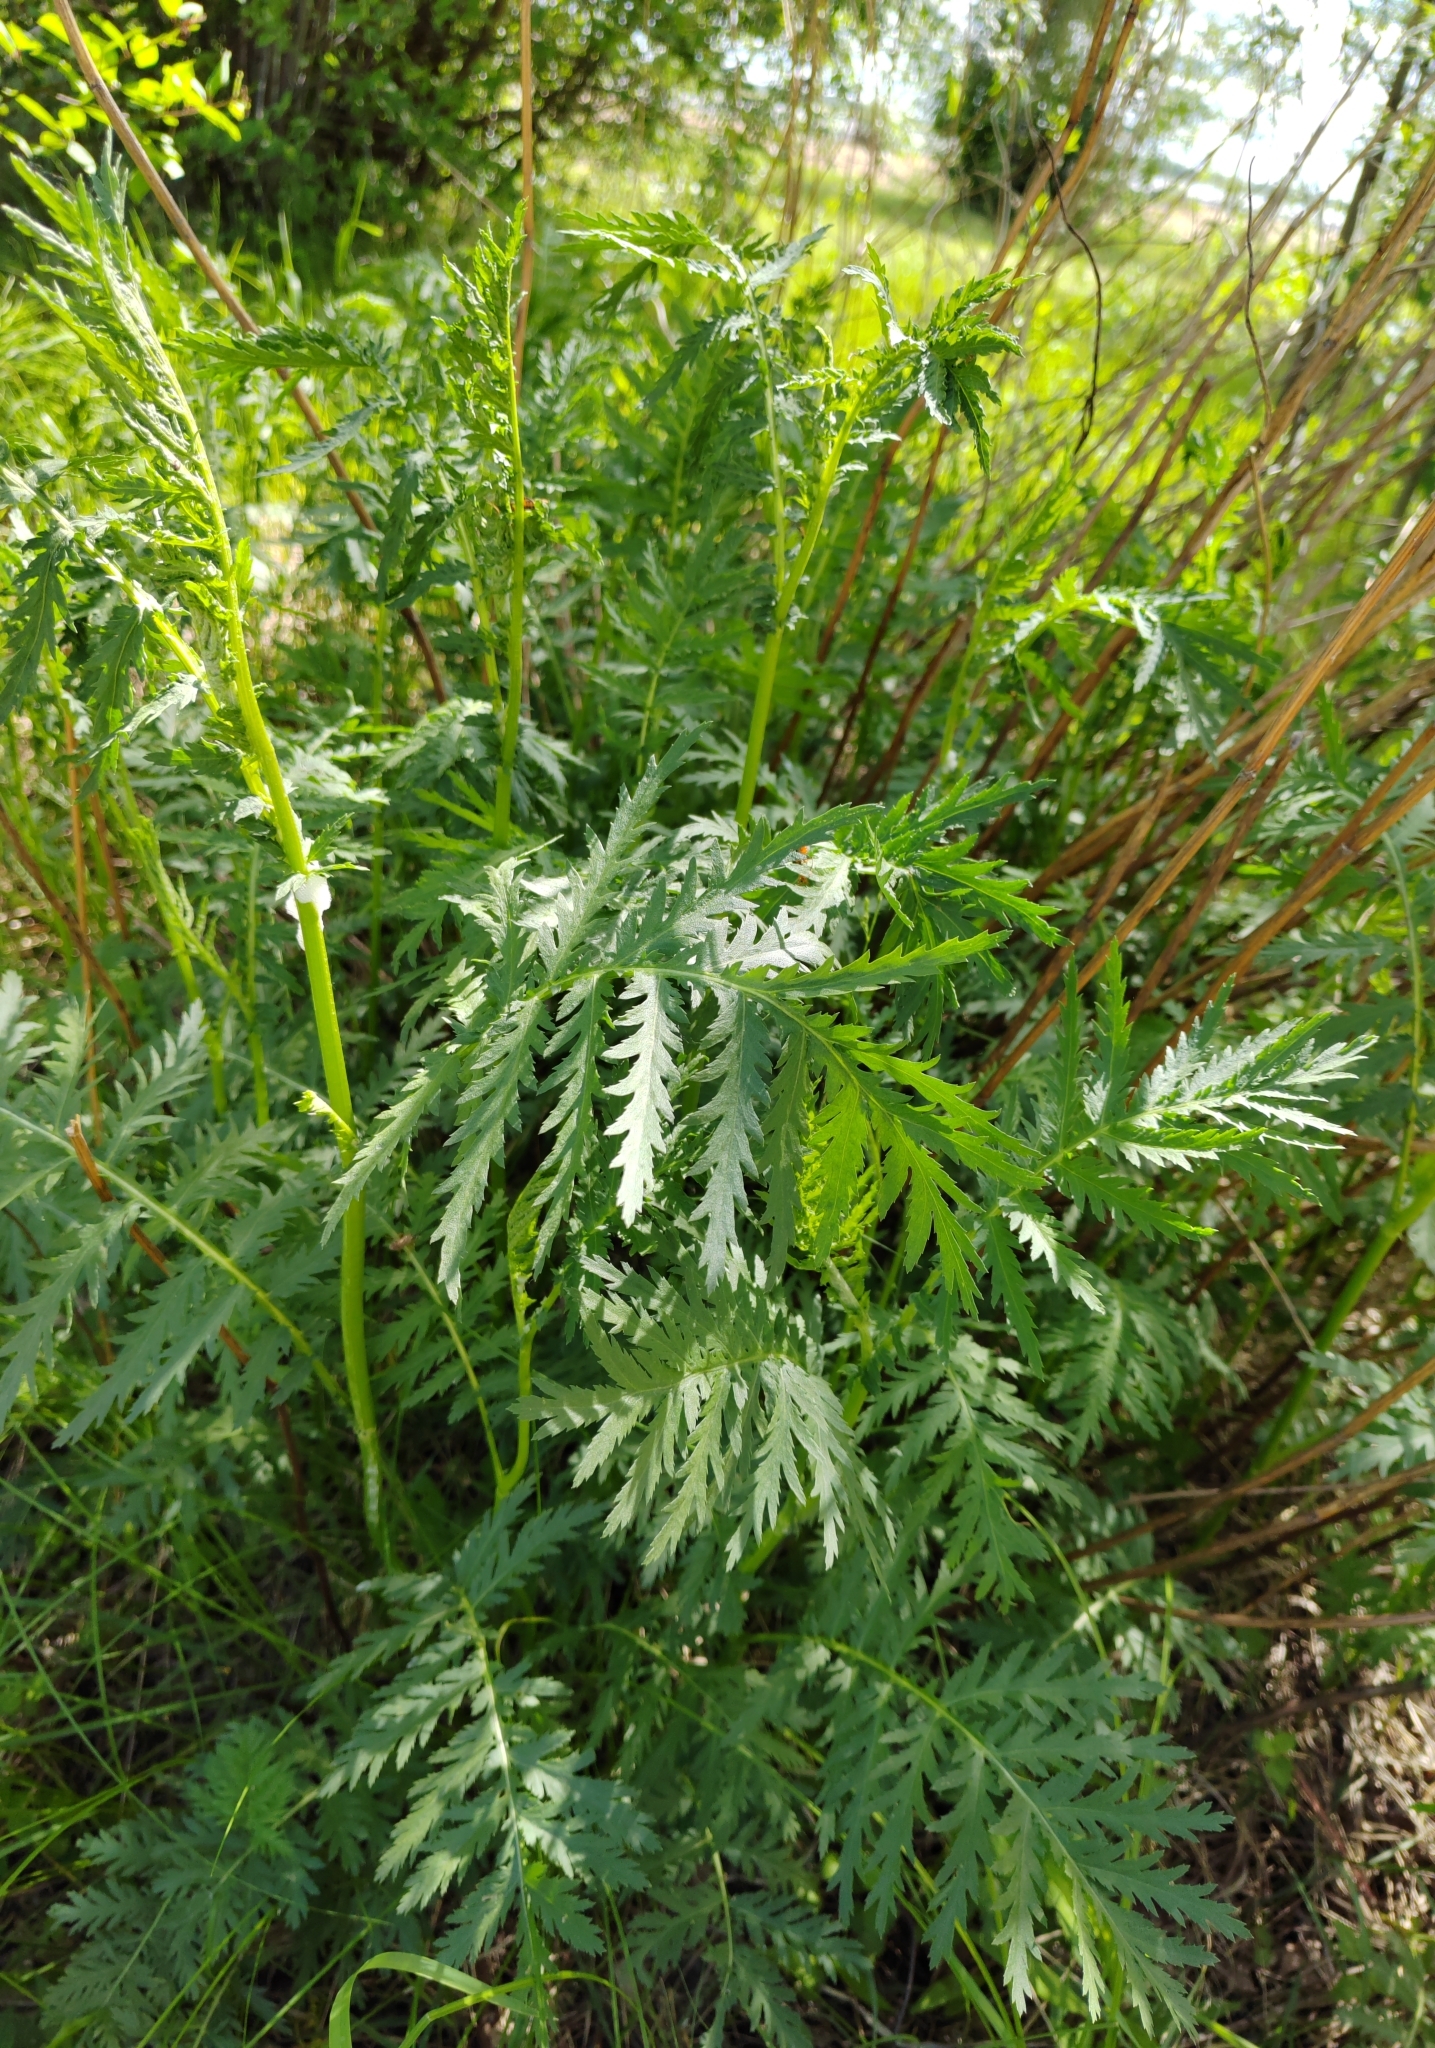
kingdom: Plantae
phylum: Tracheophyta
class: Magnoliopsida
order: Asterales
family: Asteraceae
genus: Tanacetum
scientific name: Tanacetum vulgare
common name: Common tansy
